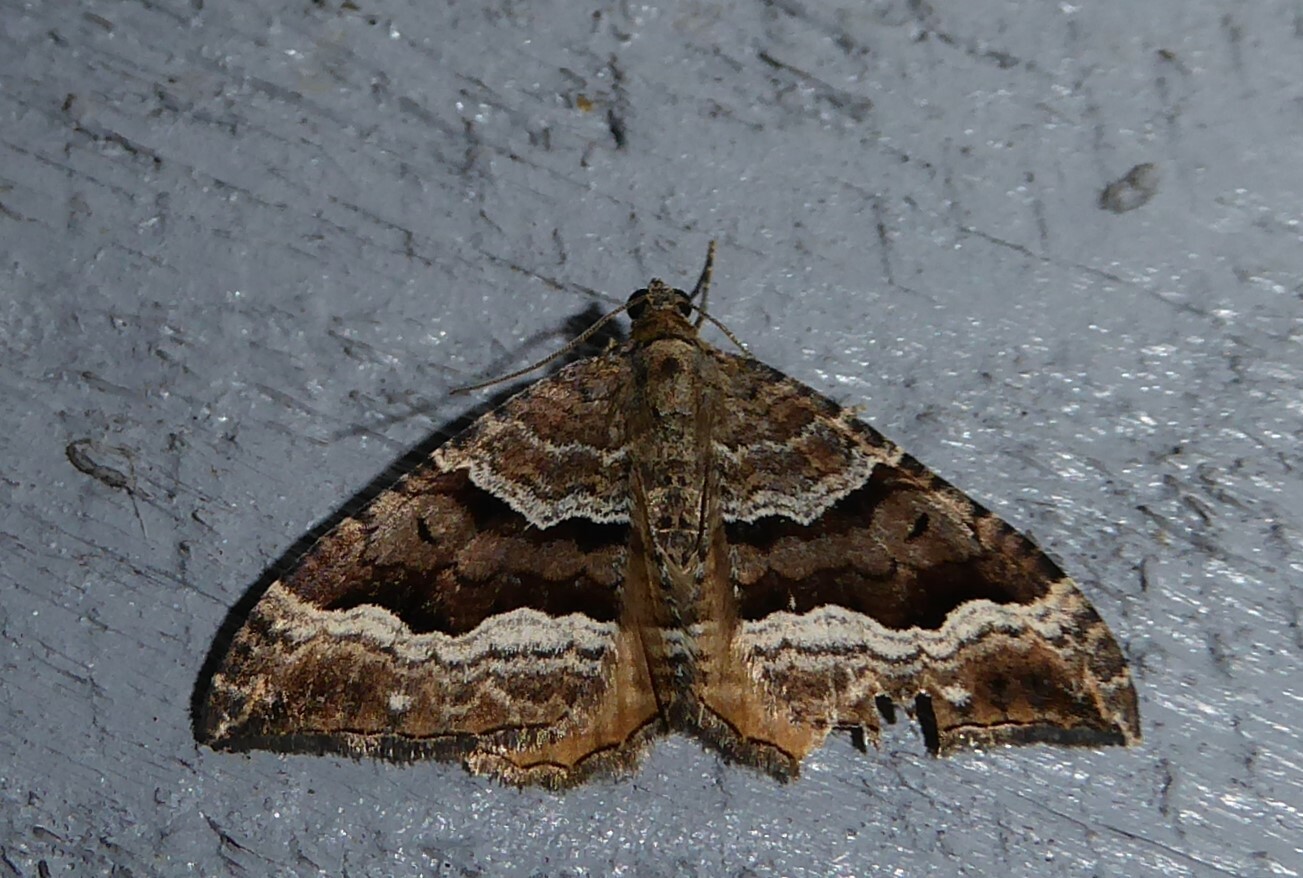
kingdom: Animalia
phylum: Arthropoda
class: Insecta
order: Lepidoptera
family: Geometridae
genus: Hydriomena
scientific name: Hydriomena deltoidata
